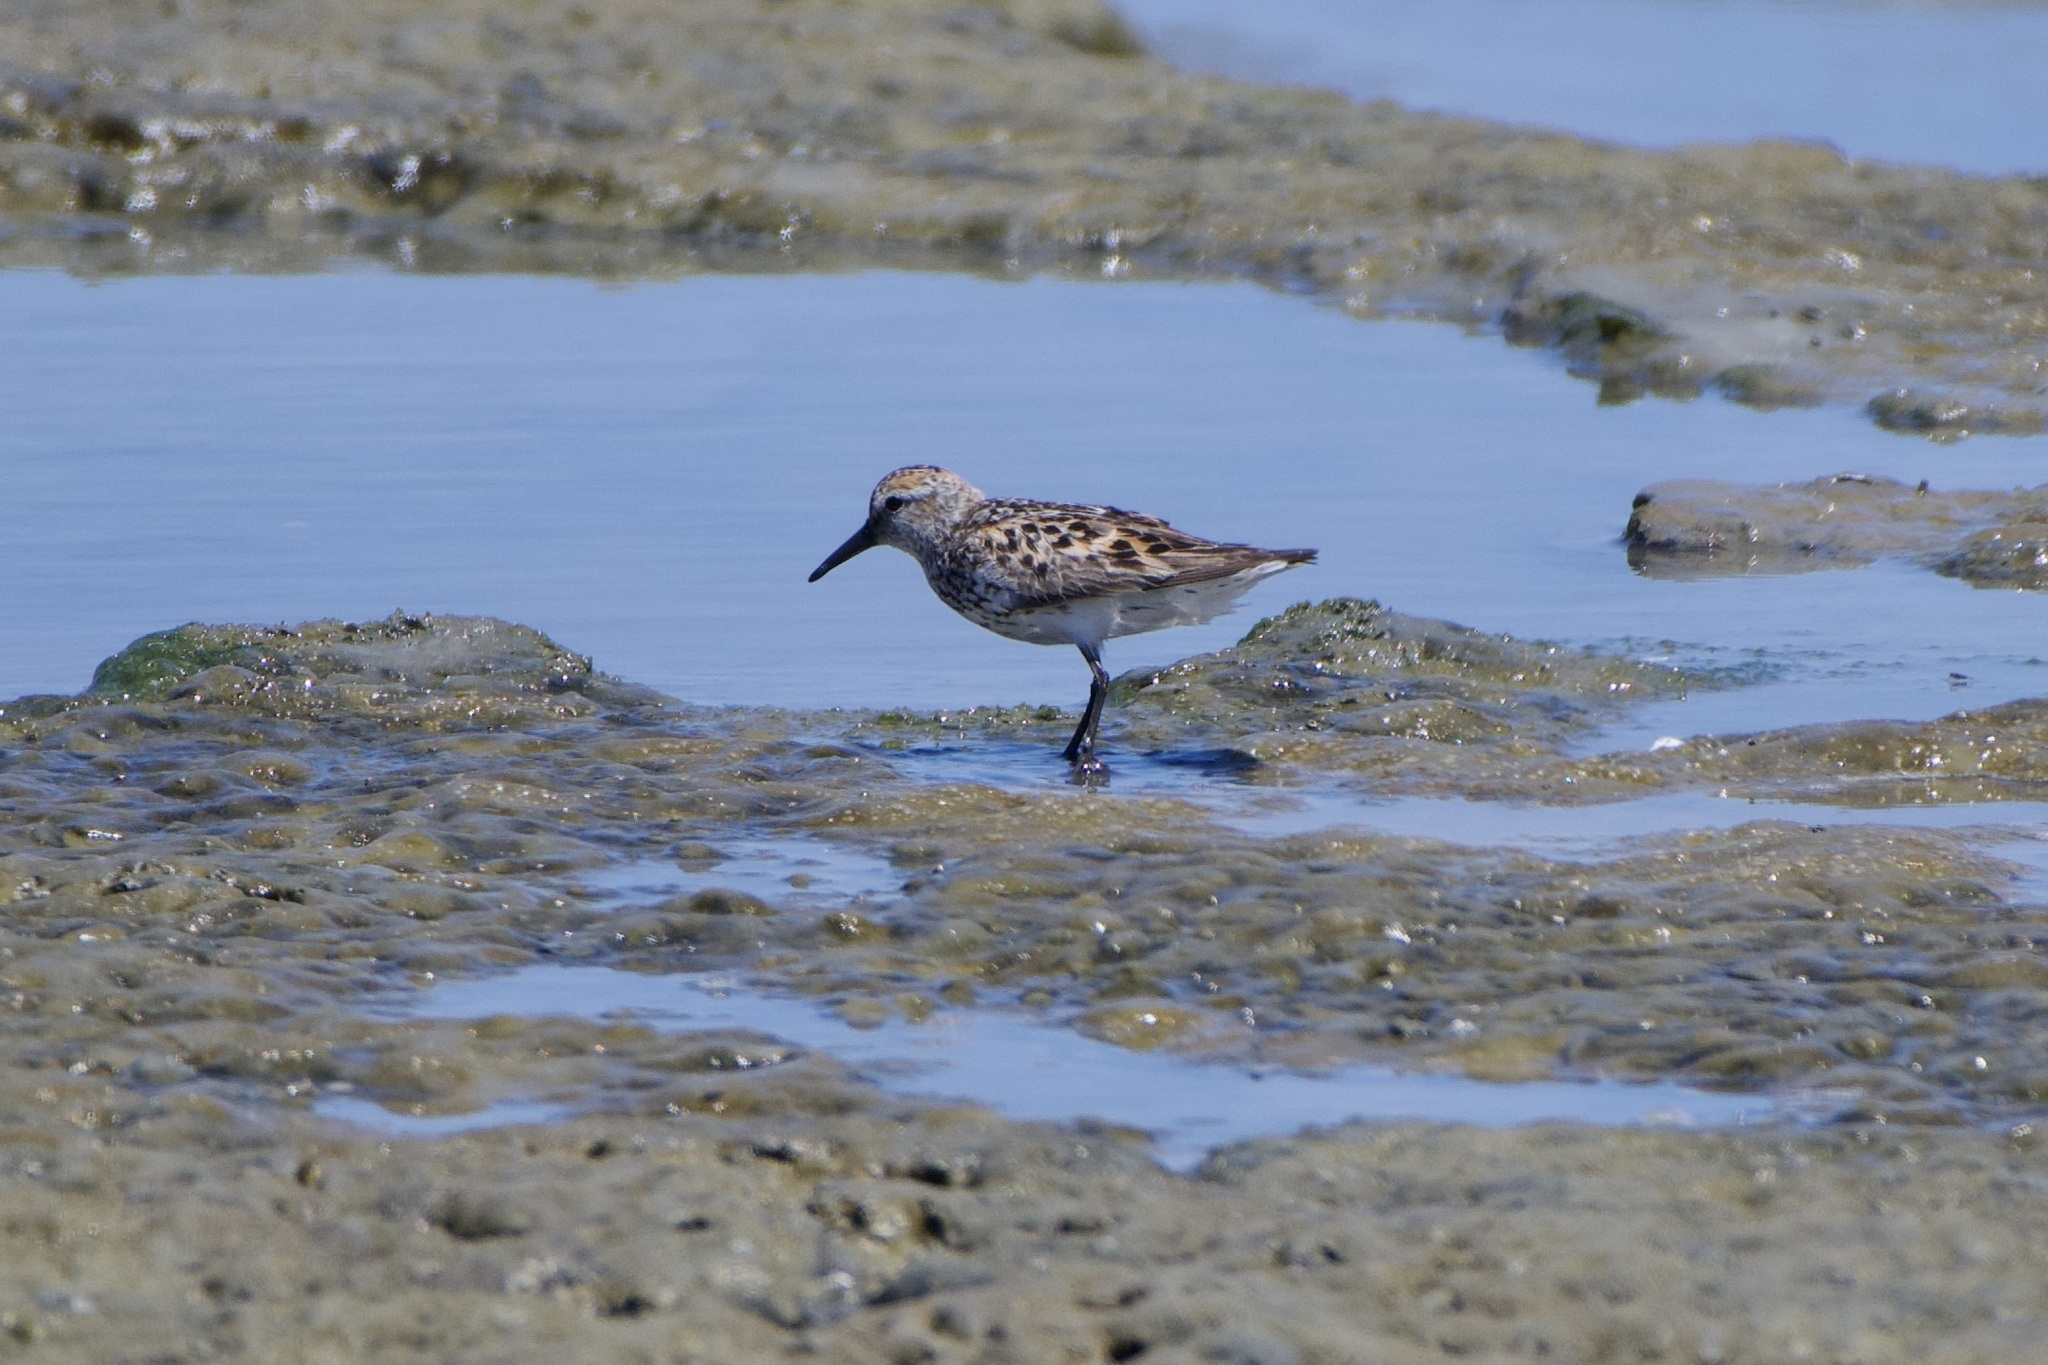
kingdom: Animalia
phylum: Chordata
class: Aves
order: Charadriiformes
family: Scolopacidae
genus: Calidris
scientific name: Calidris mauri
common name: Western sandpiper
